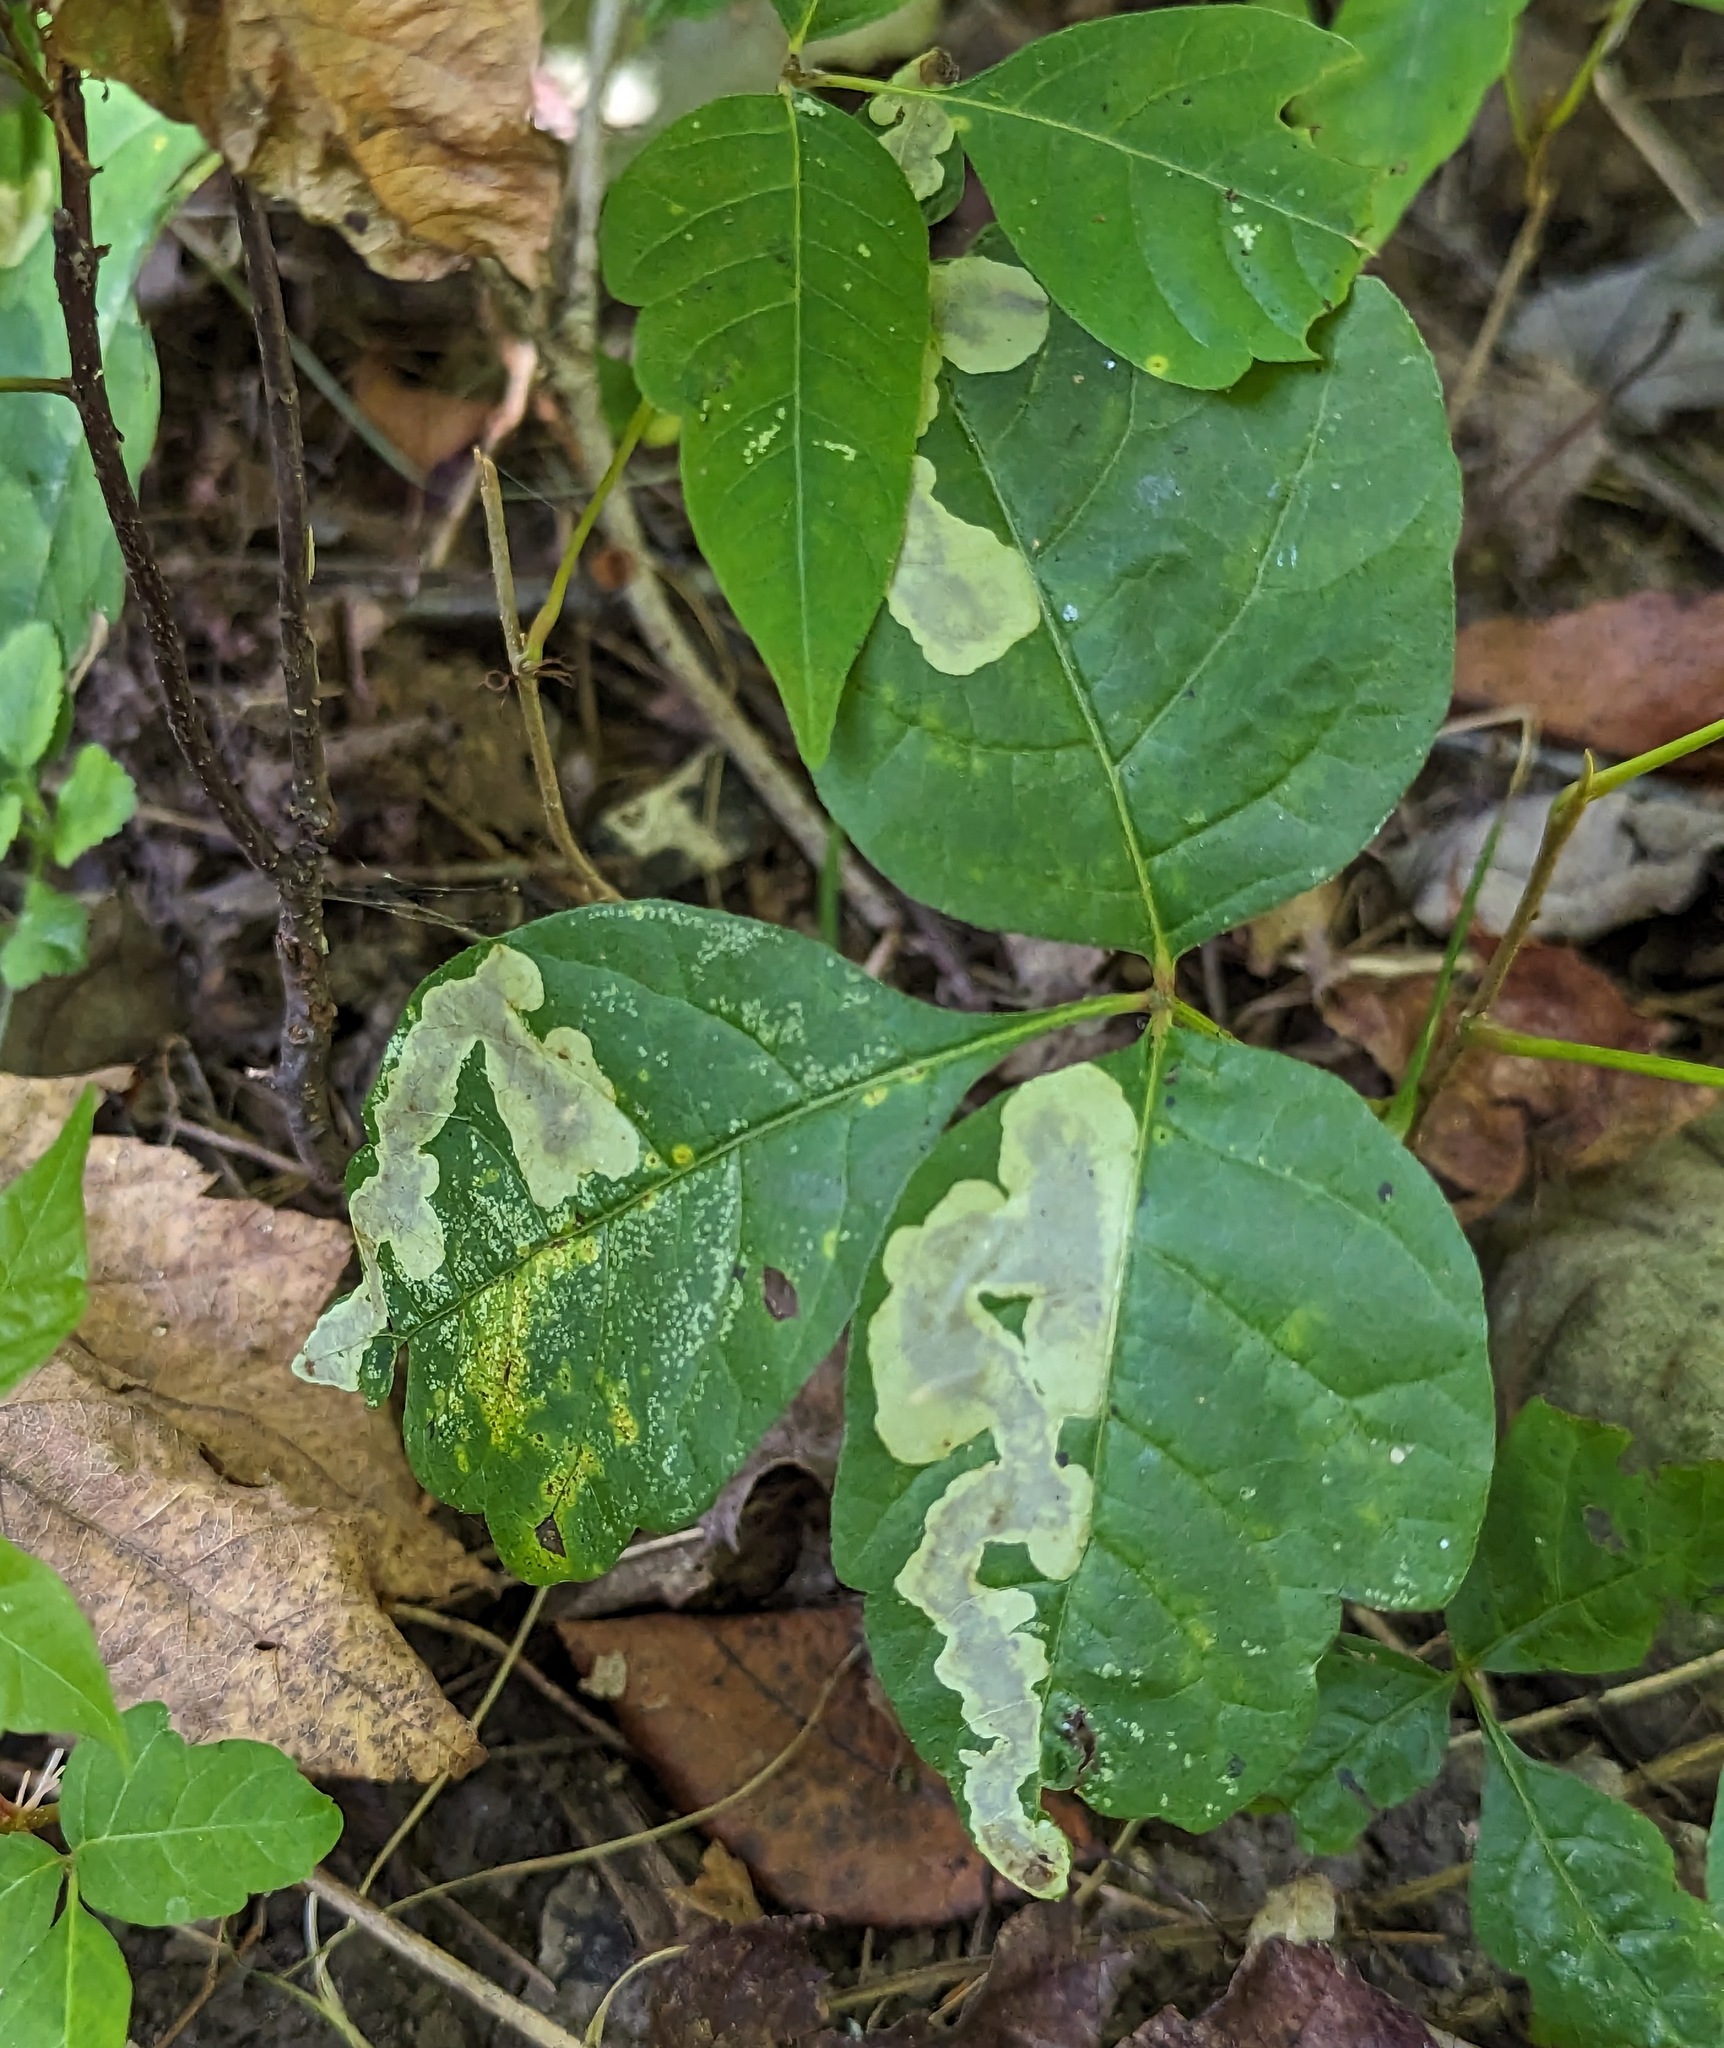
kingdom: Animalia
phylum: Arthropoda
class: Insecta
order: Lepidoptera
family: Gracillariidae
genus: Cameraria
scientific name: Cameraria guttifinitella
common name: Poison ivy leaf-miner moth
